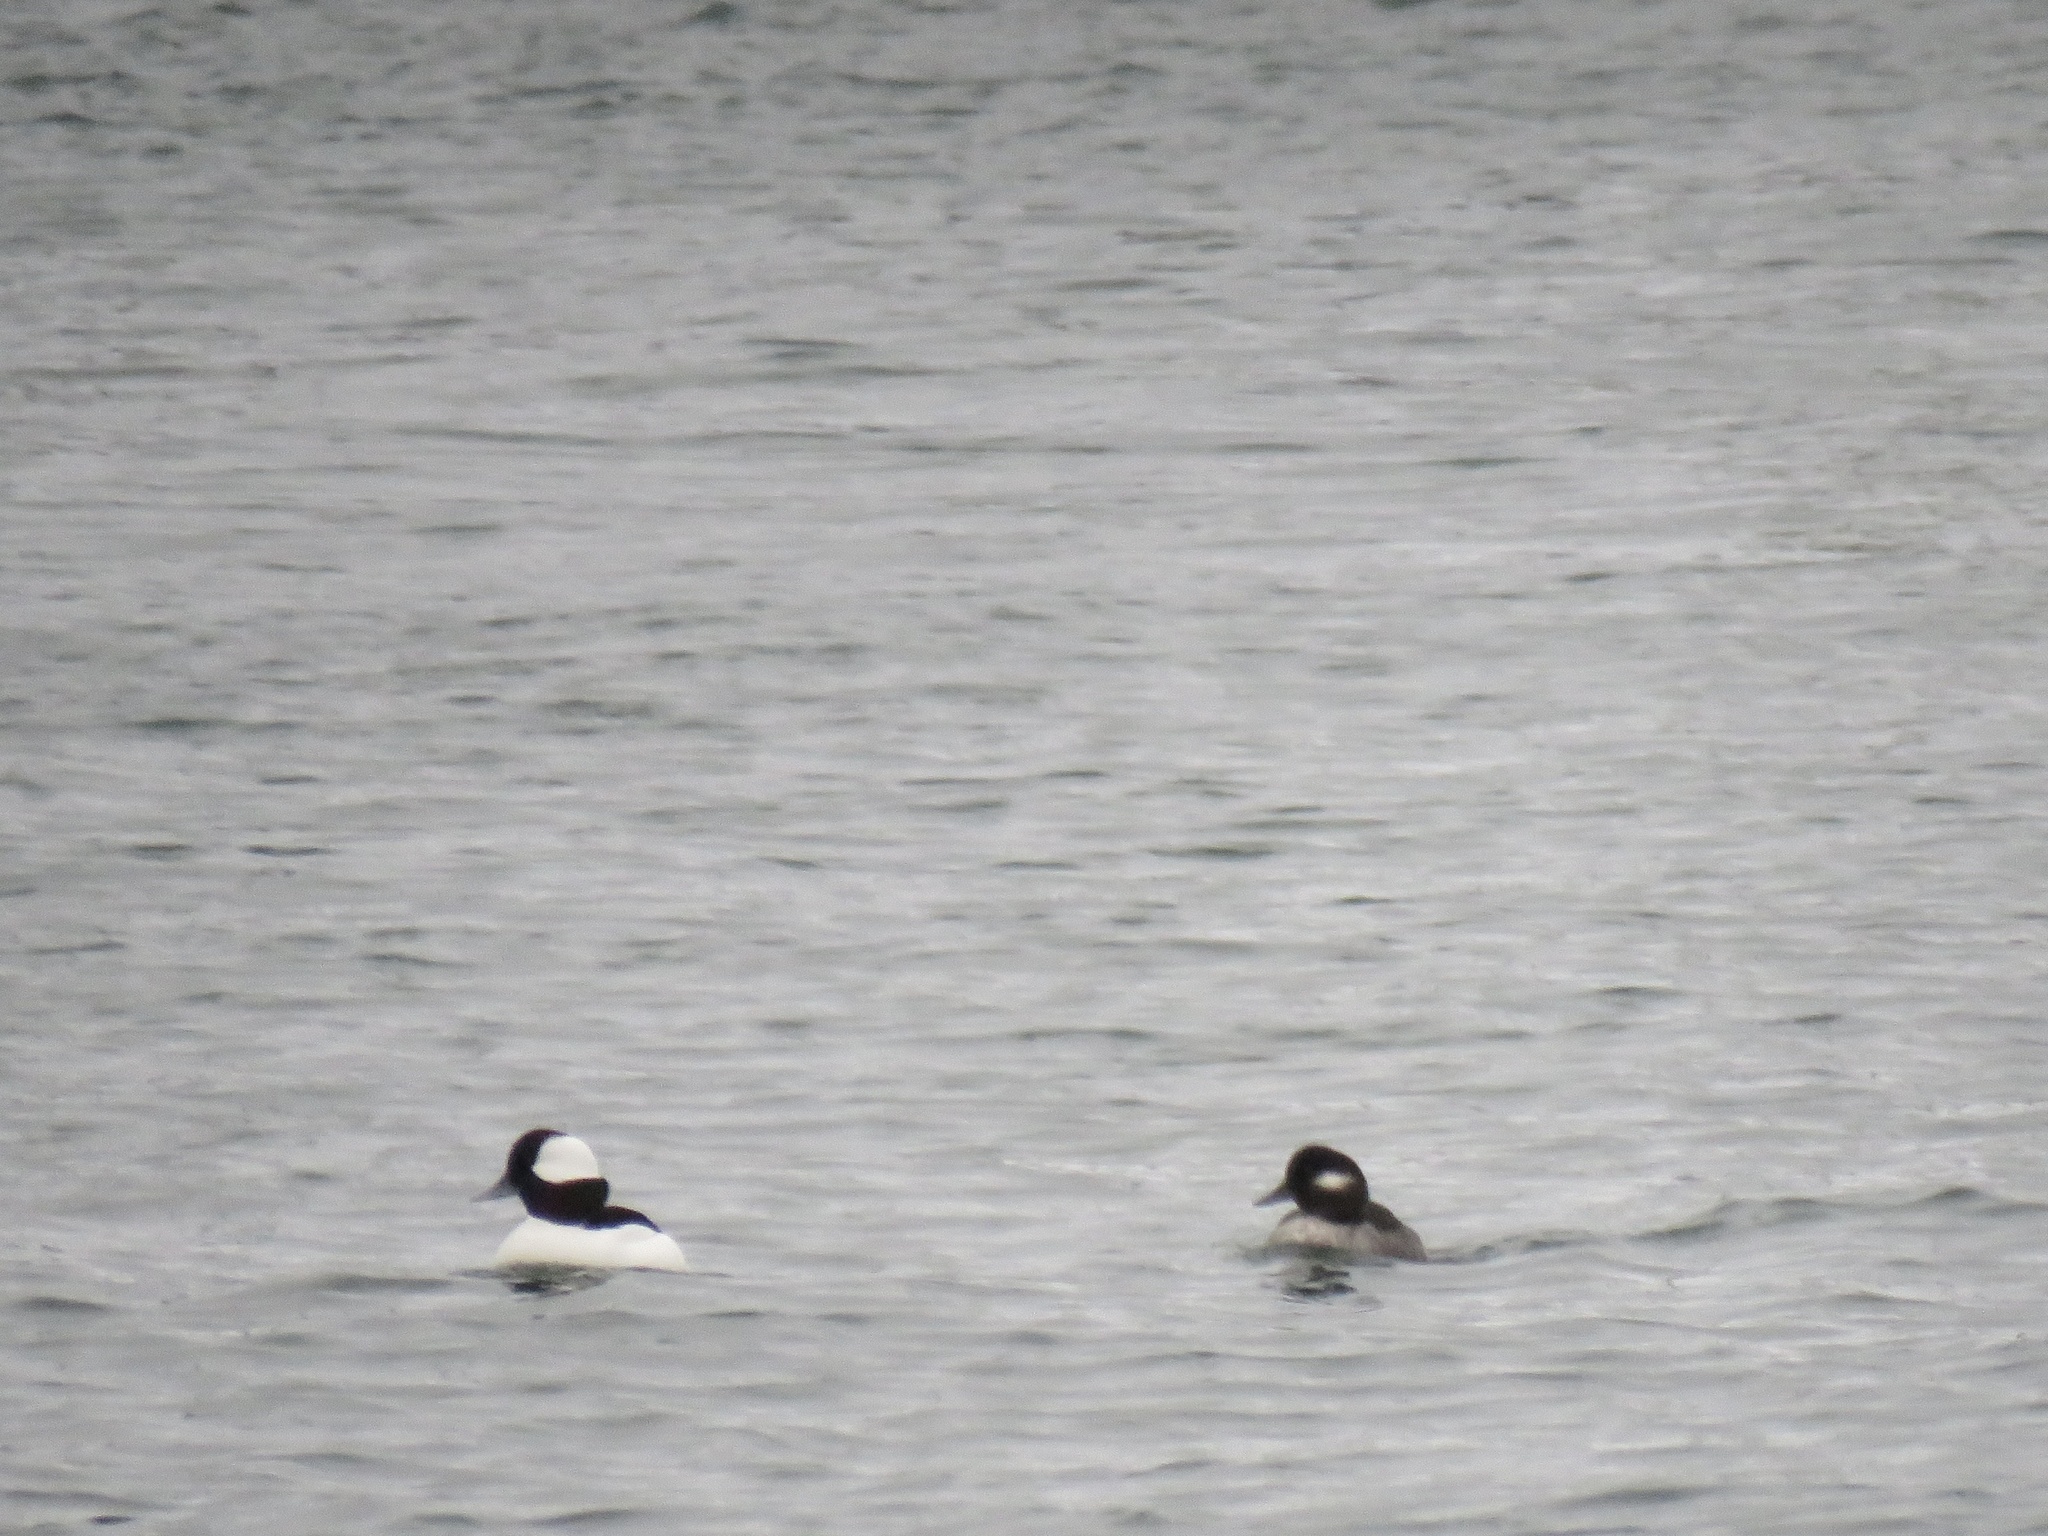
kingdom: Animalia
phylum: Chordata
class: Aves
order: Anseriformes
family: Anatidae
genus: Bucephala
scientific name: Bucephala albeola
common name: Bufflehead
